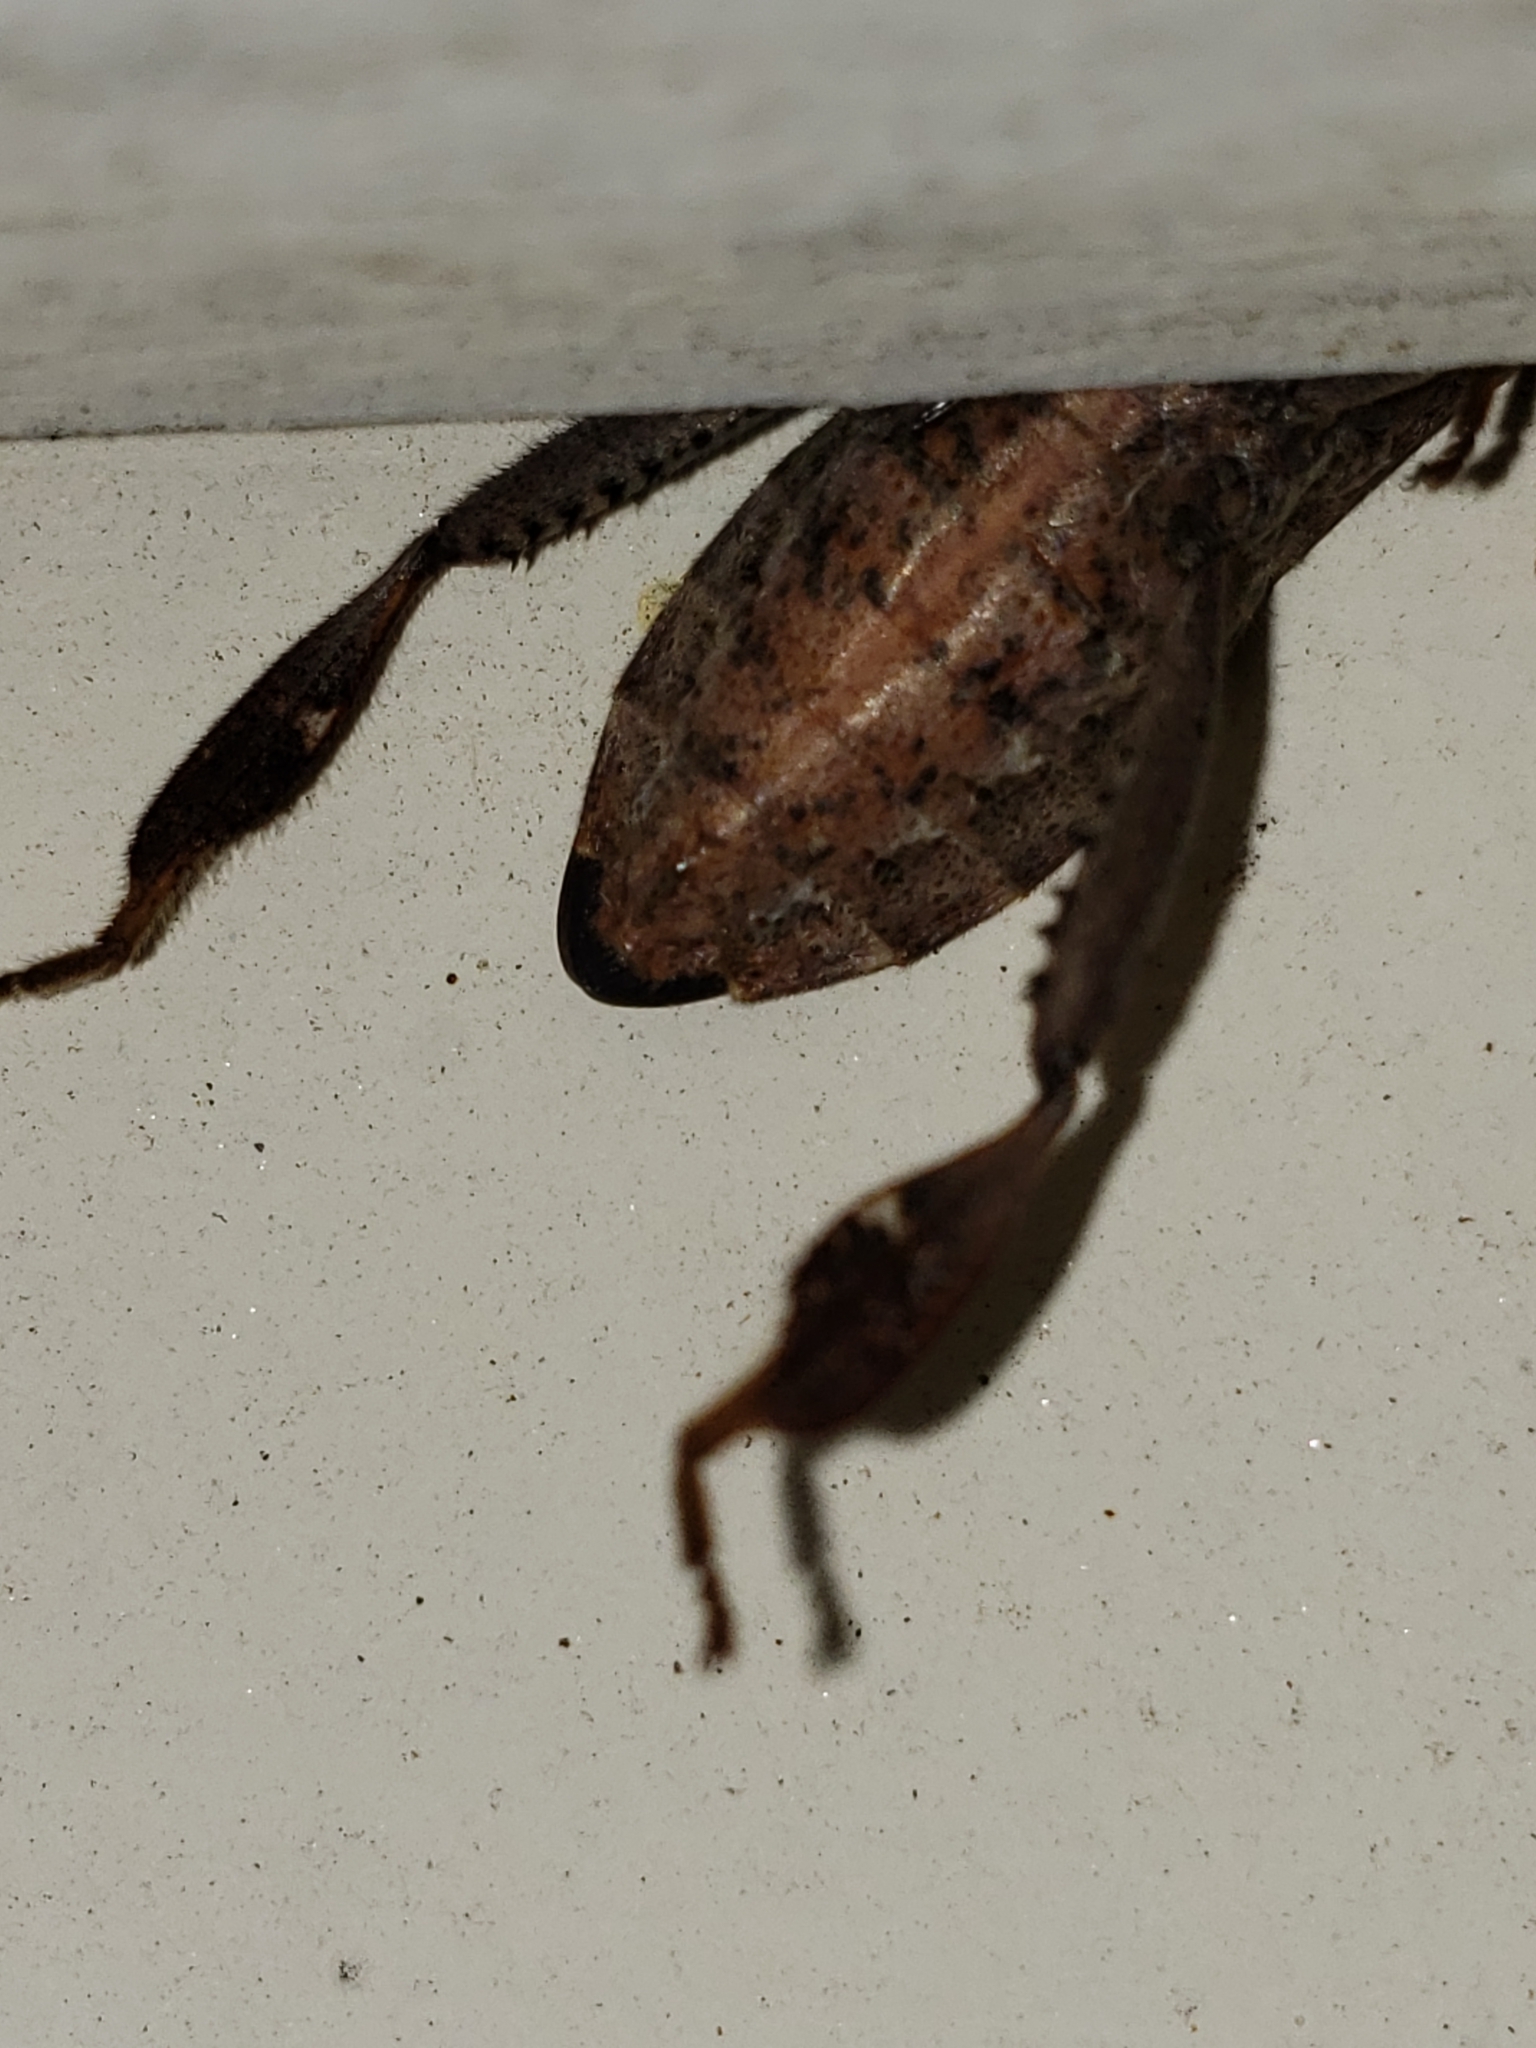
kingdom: Animalia
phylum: Arthropoda
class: Insecta
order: Hemiptera
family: Coreidae
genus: Leptoglossus
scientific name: Leptoglossus corculus
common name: Southern pine seed bug
